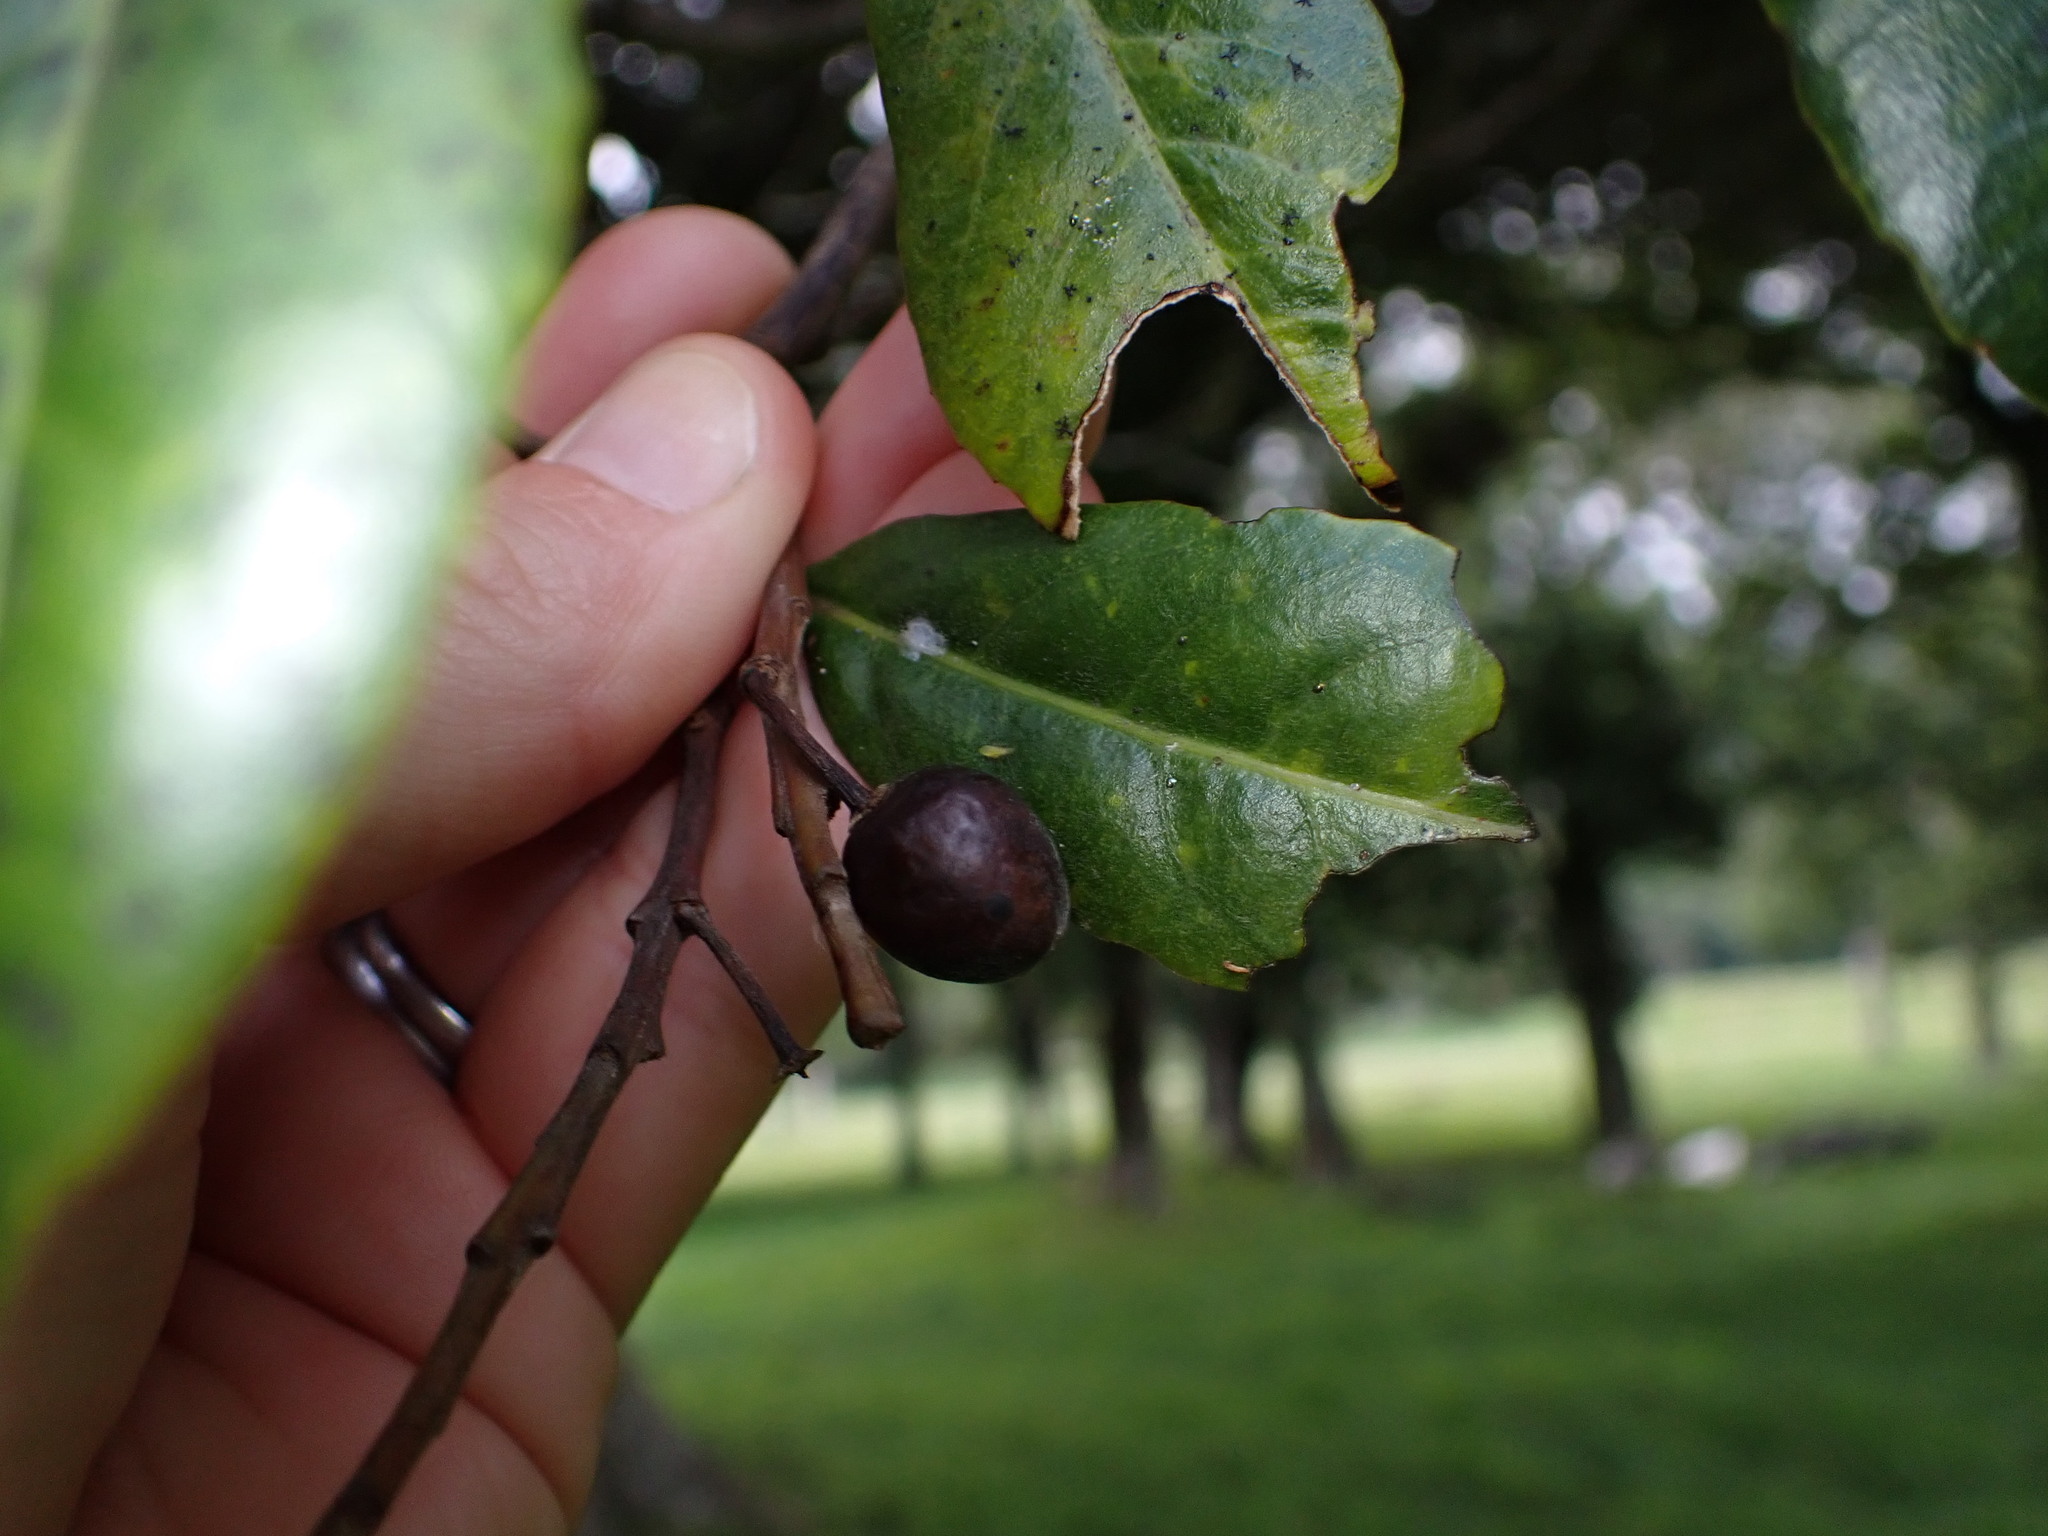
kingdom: Plantae
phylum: Tracheophyta
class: Magnoliopsida
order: Oxalidales
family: Elaeocarpaceae
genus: Elaeocarpus
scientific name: Elaeocarpus dentatus
